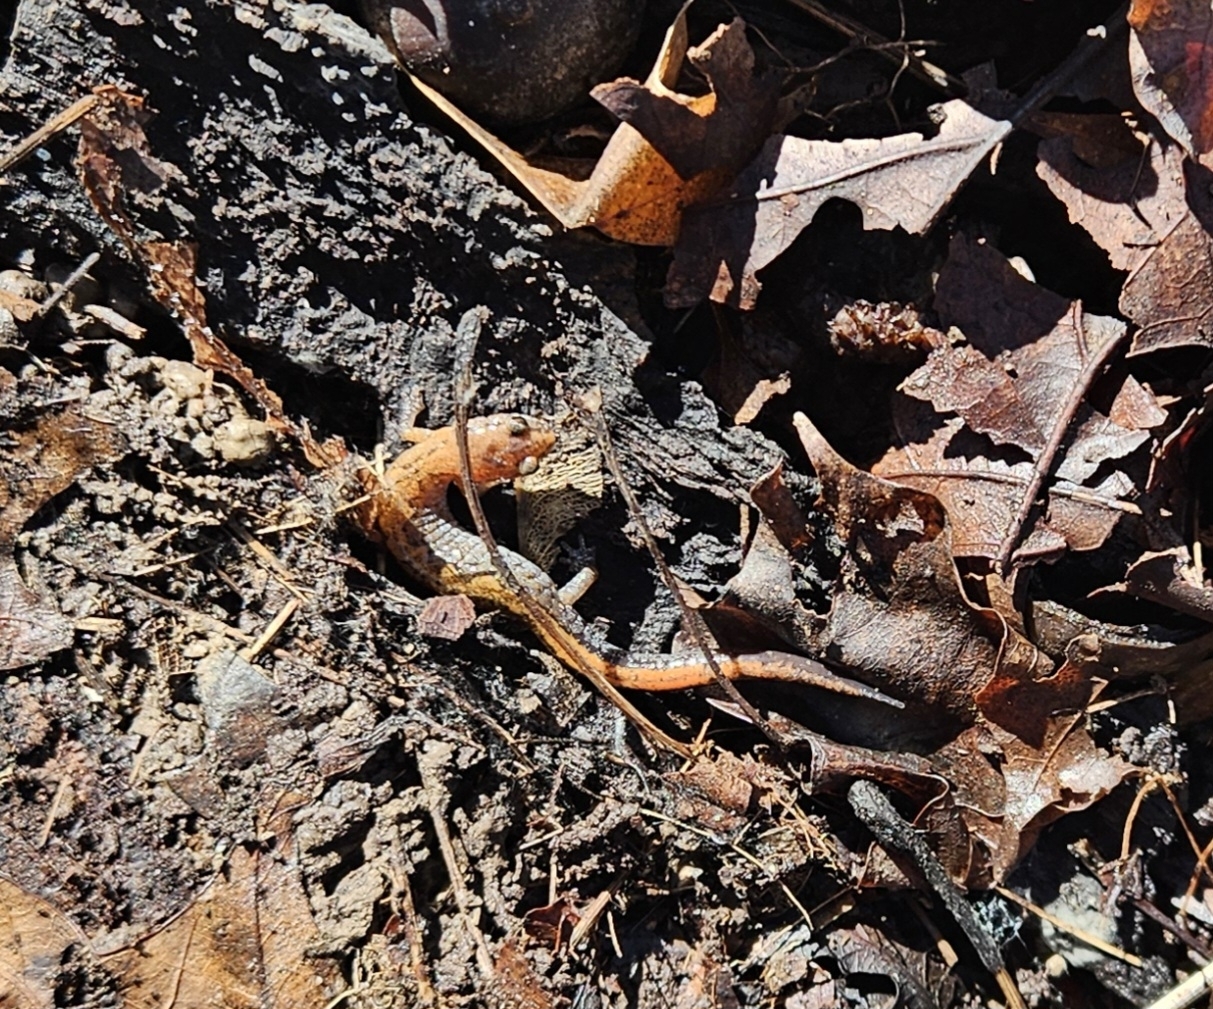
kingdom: Animalia
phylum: Chordata
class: Amphibia
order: Caudata
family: Plethodontidae
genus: Plethodon
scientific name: Plethodon dorsalis
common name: Northern zigzag salamander
